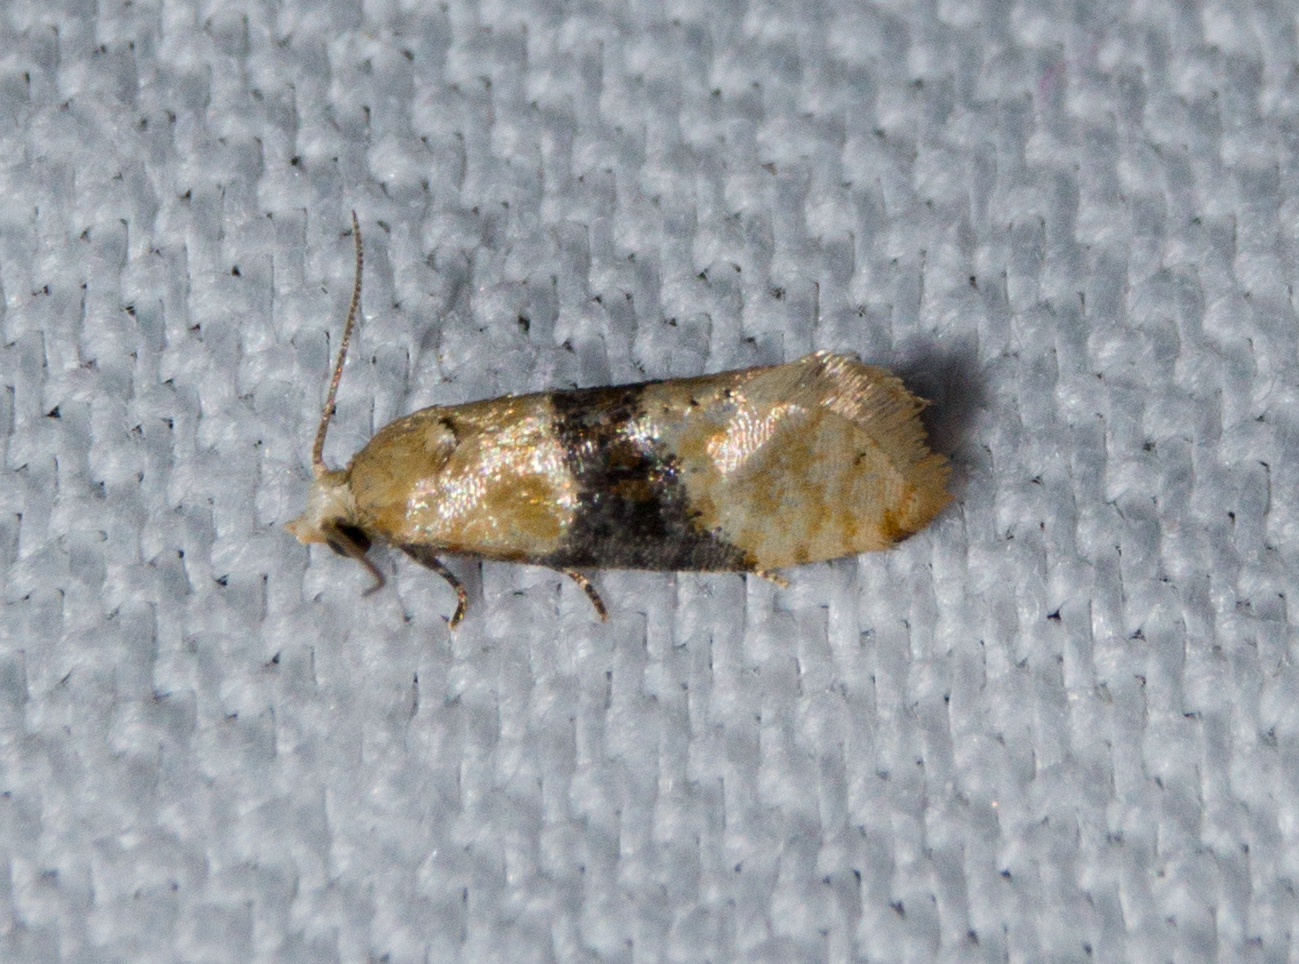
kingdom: Animalia
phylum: Arthropoda
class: Insecta
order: Lepidoptera
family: Tortricidae
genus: Eupoecilia
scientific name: Eupoecilia ambiguella
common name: Vine moth
